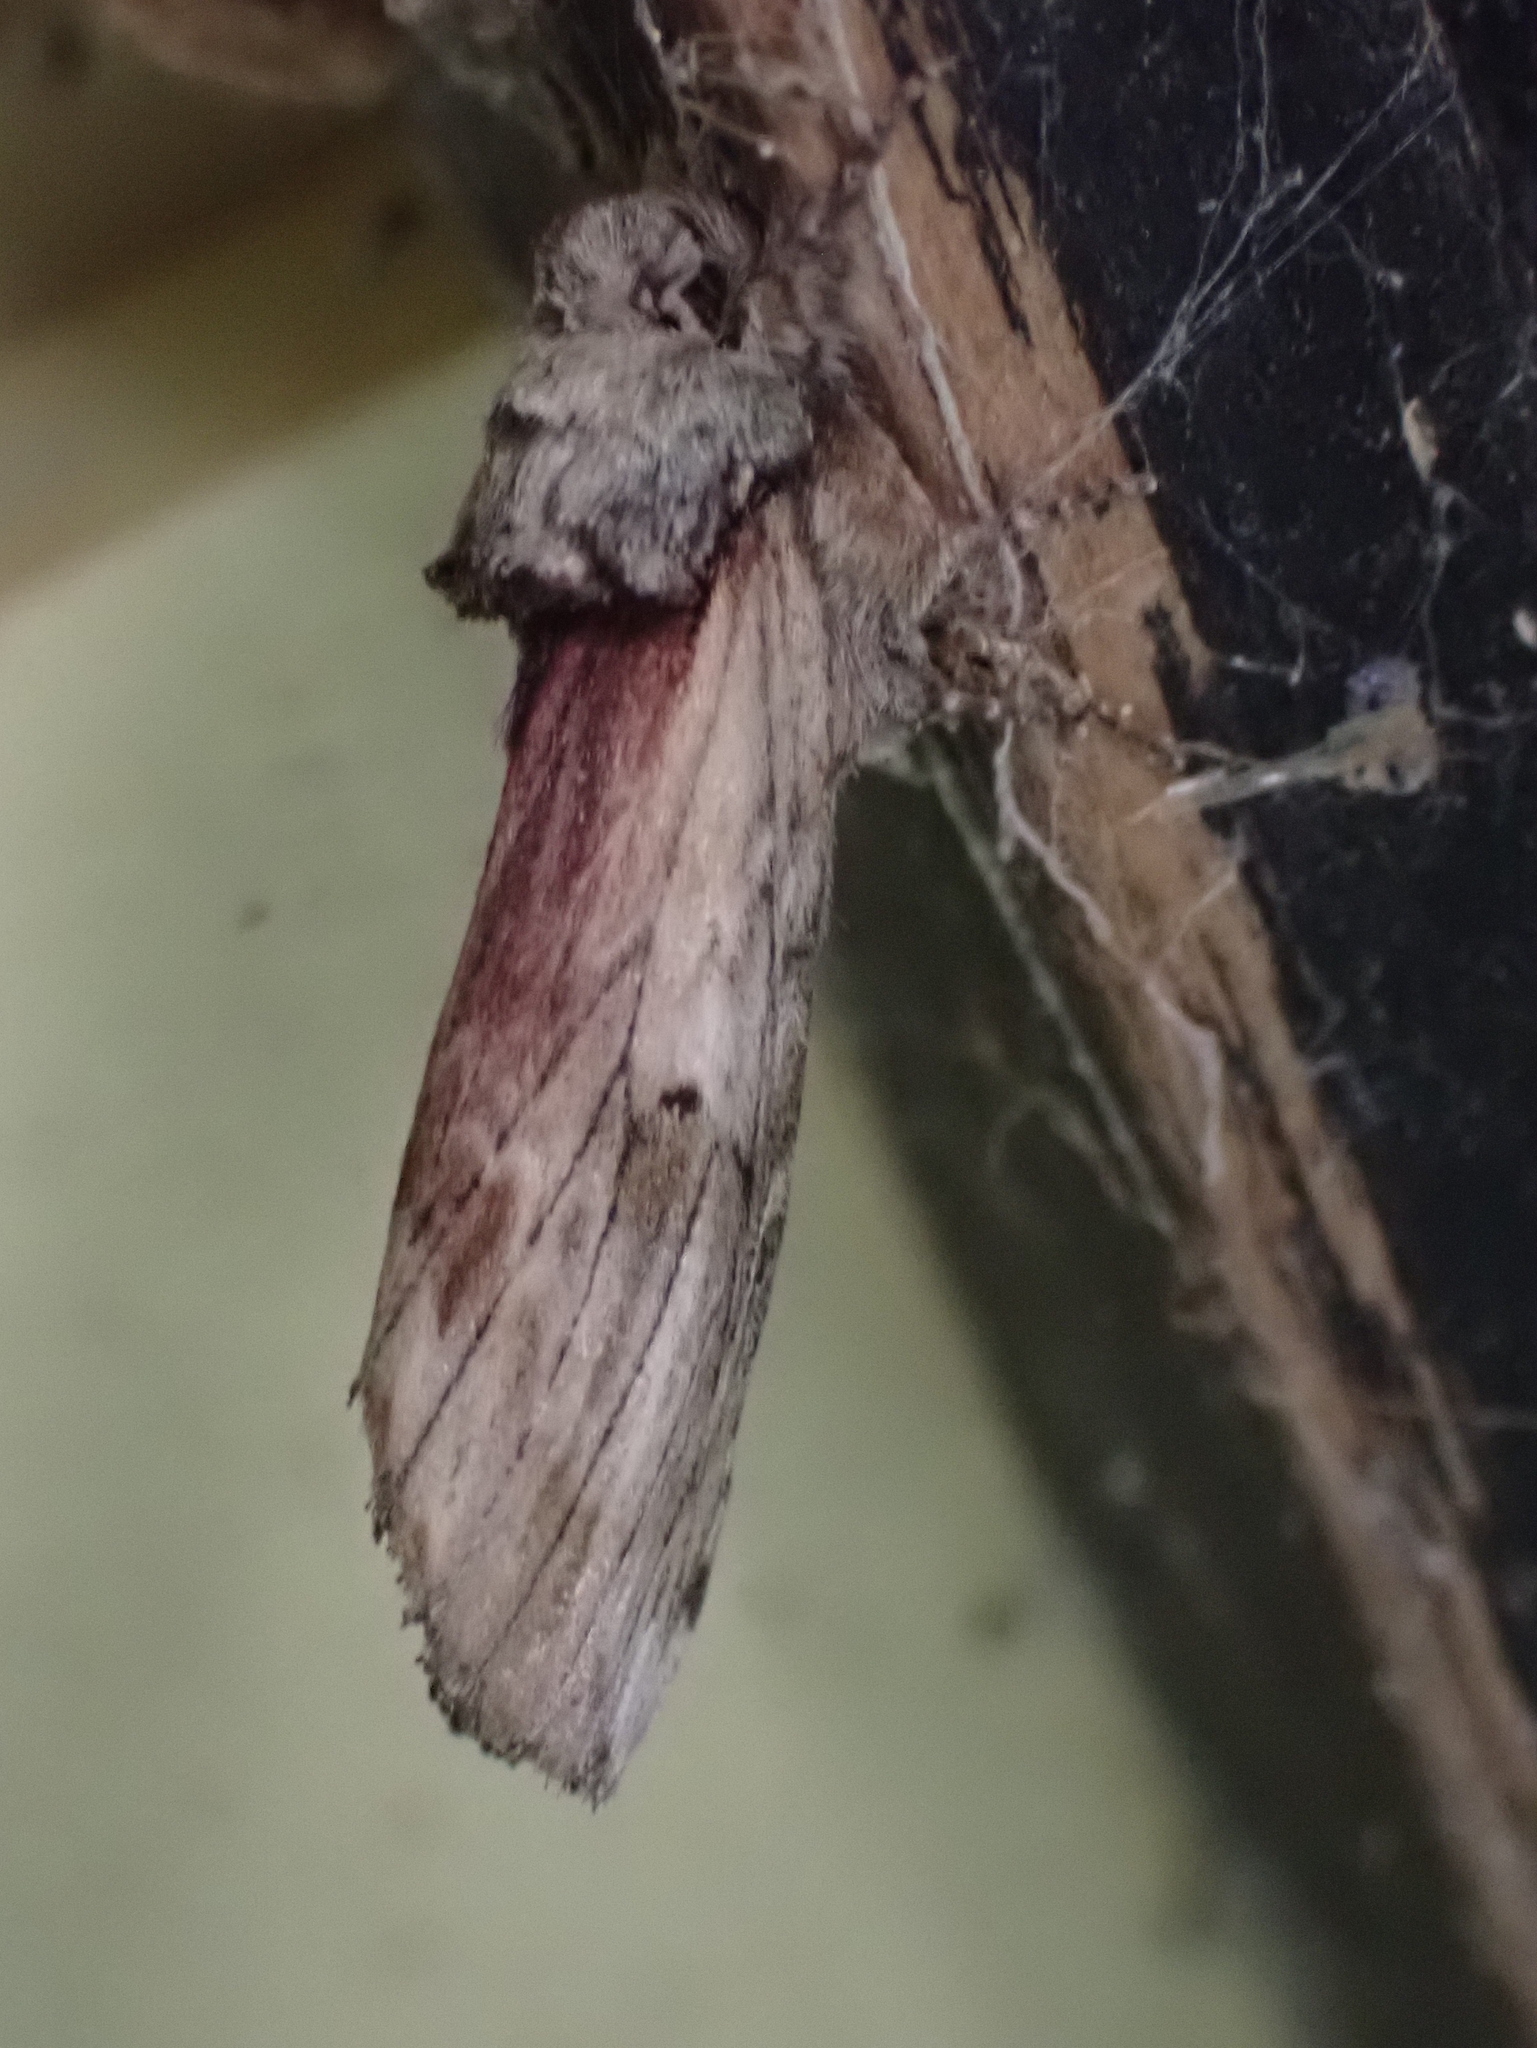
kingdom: Animalia
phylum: Arthropoda
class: Insecta
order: Lepidoptera
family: Notodontidae
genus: Schizura
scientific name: Schizura
